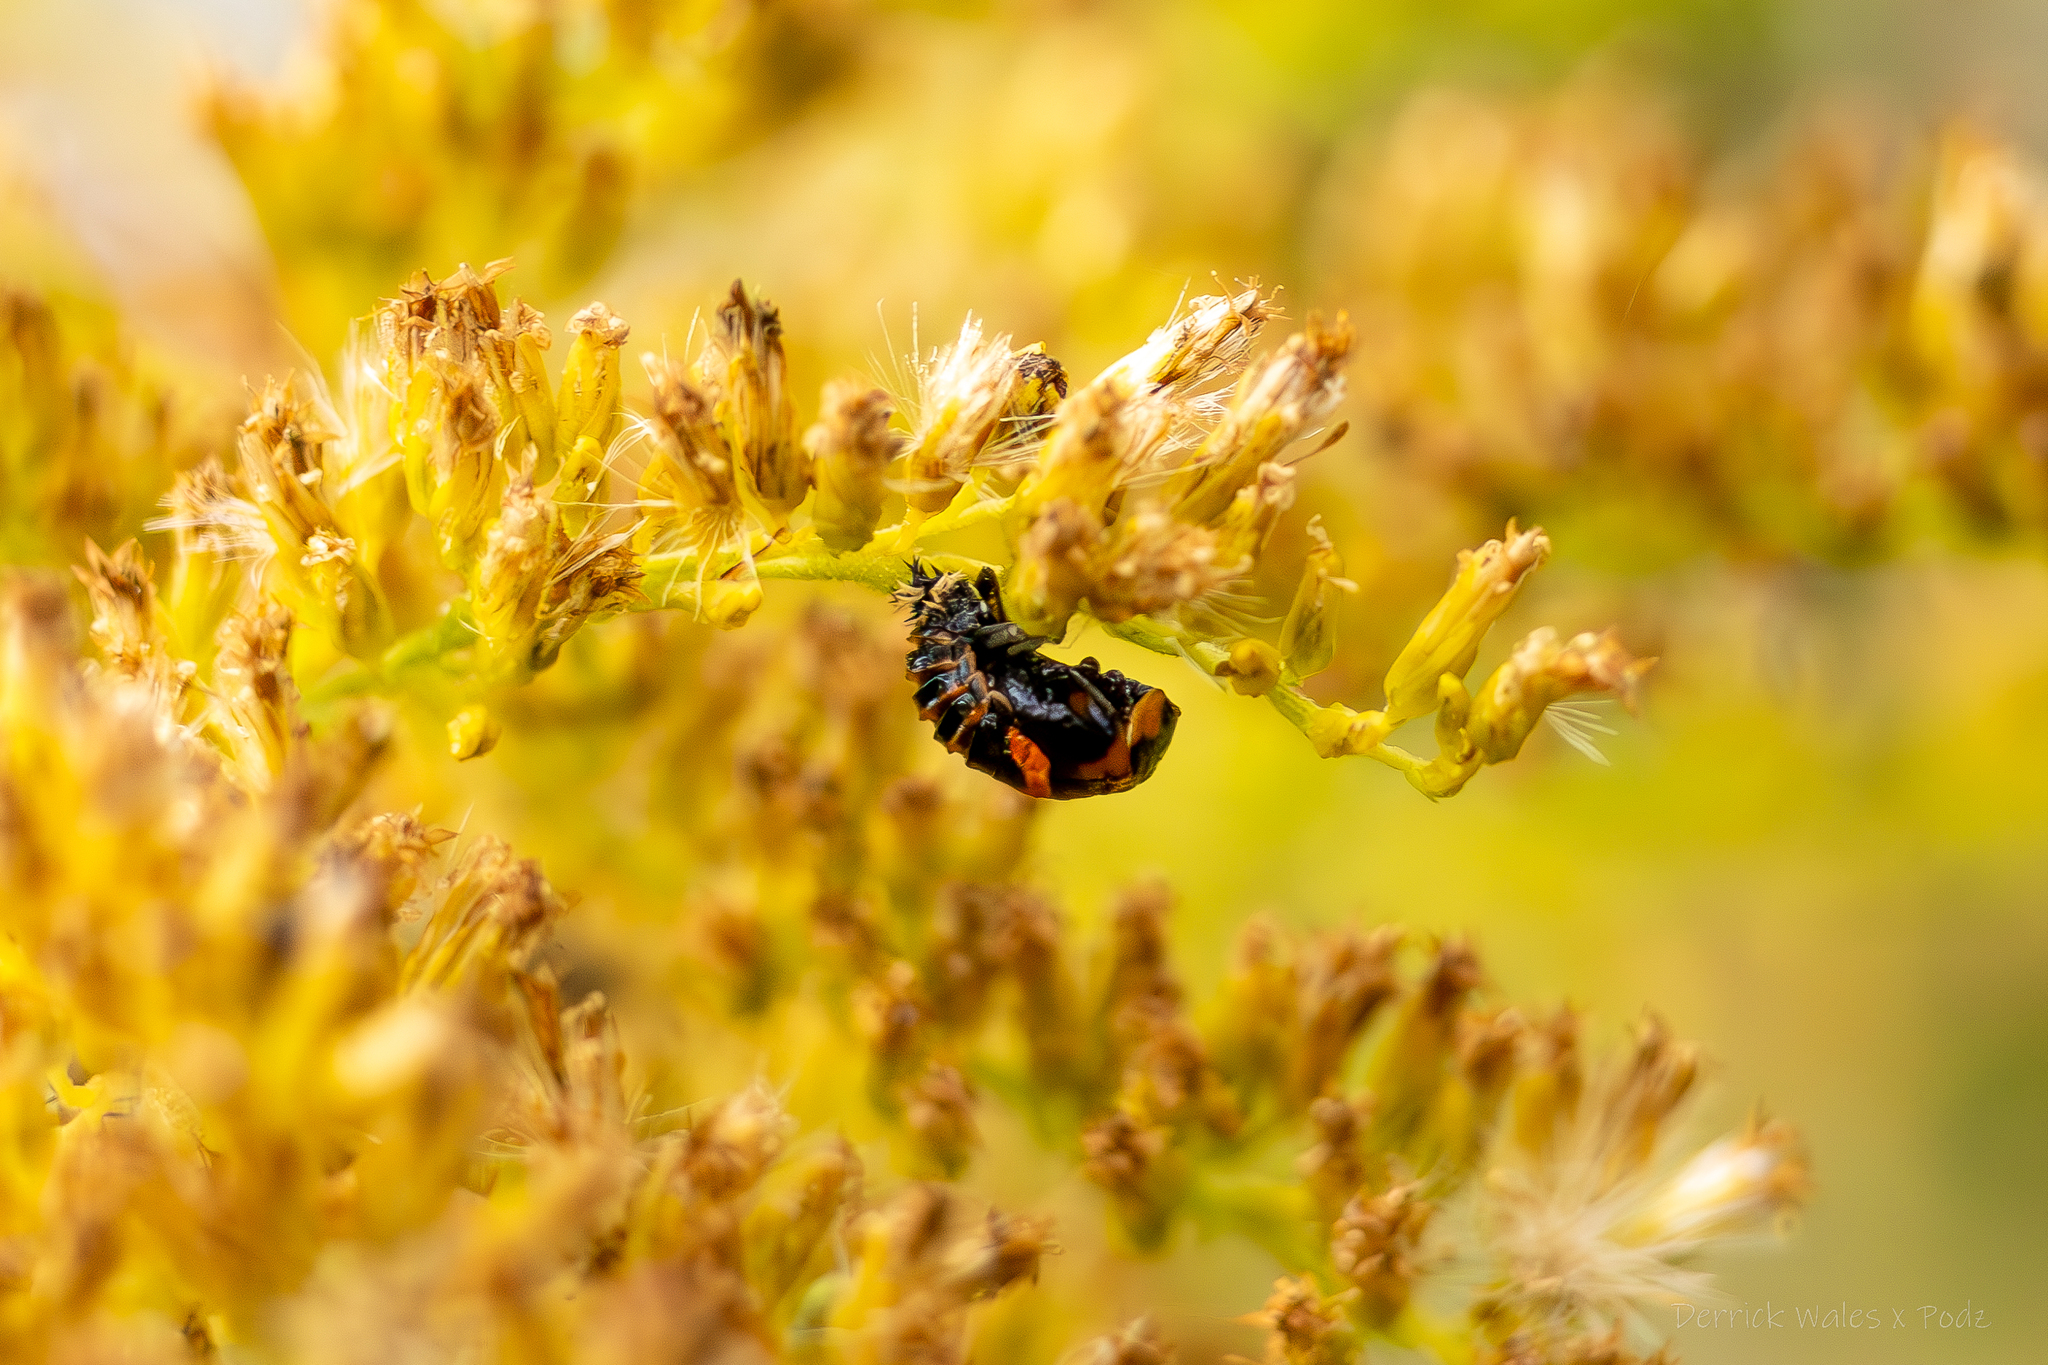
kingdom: Animalia
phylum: Arthropoda
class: Insecta
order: Coleoptera
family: Coccinellidae
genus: Harmonia
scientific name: Harmonia axyridis
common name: Harlequin ladybird
